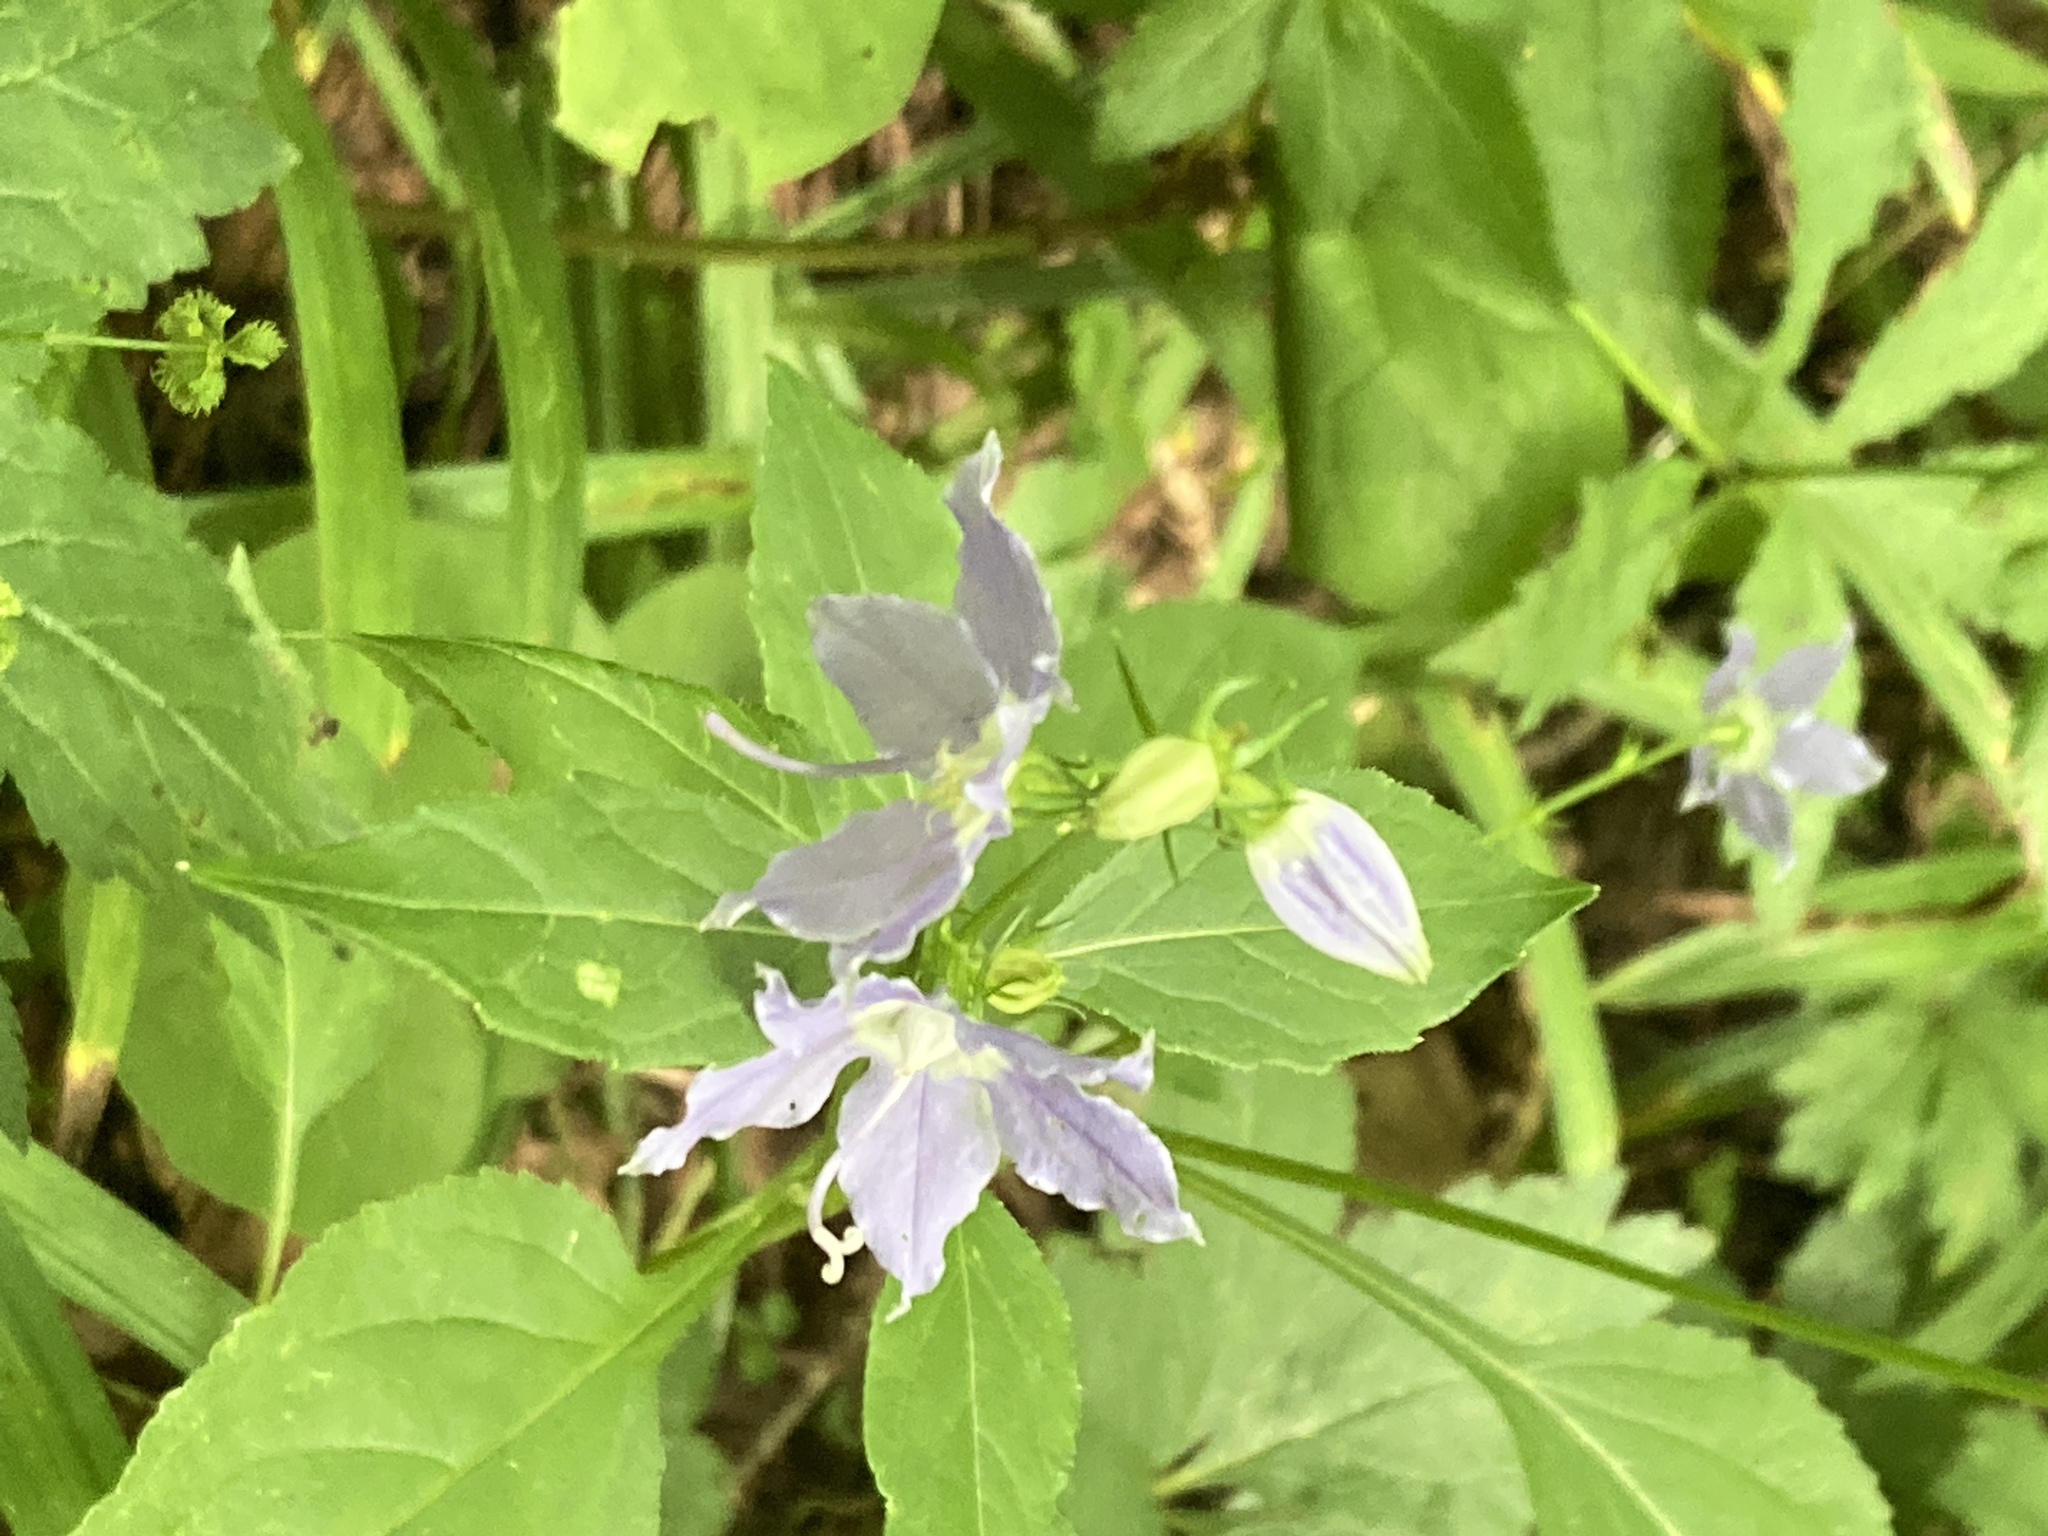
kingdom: Plantae
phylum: Tracheophyta
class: Magnoliopsida
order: Asterales
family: Campanulaceae
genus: Campanulastrum
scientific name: Campanulastrum americanum
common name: American bellflower
